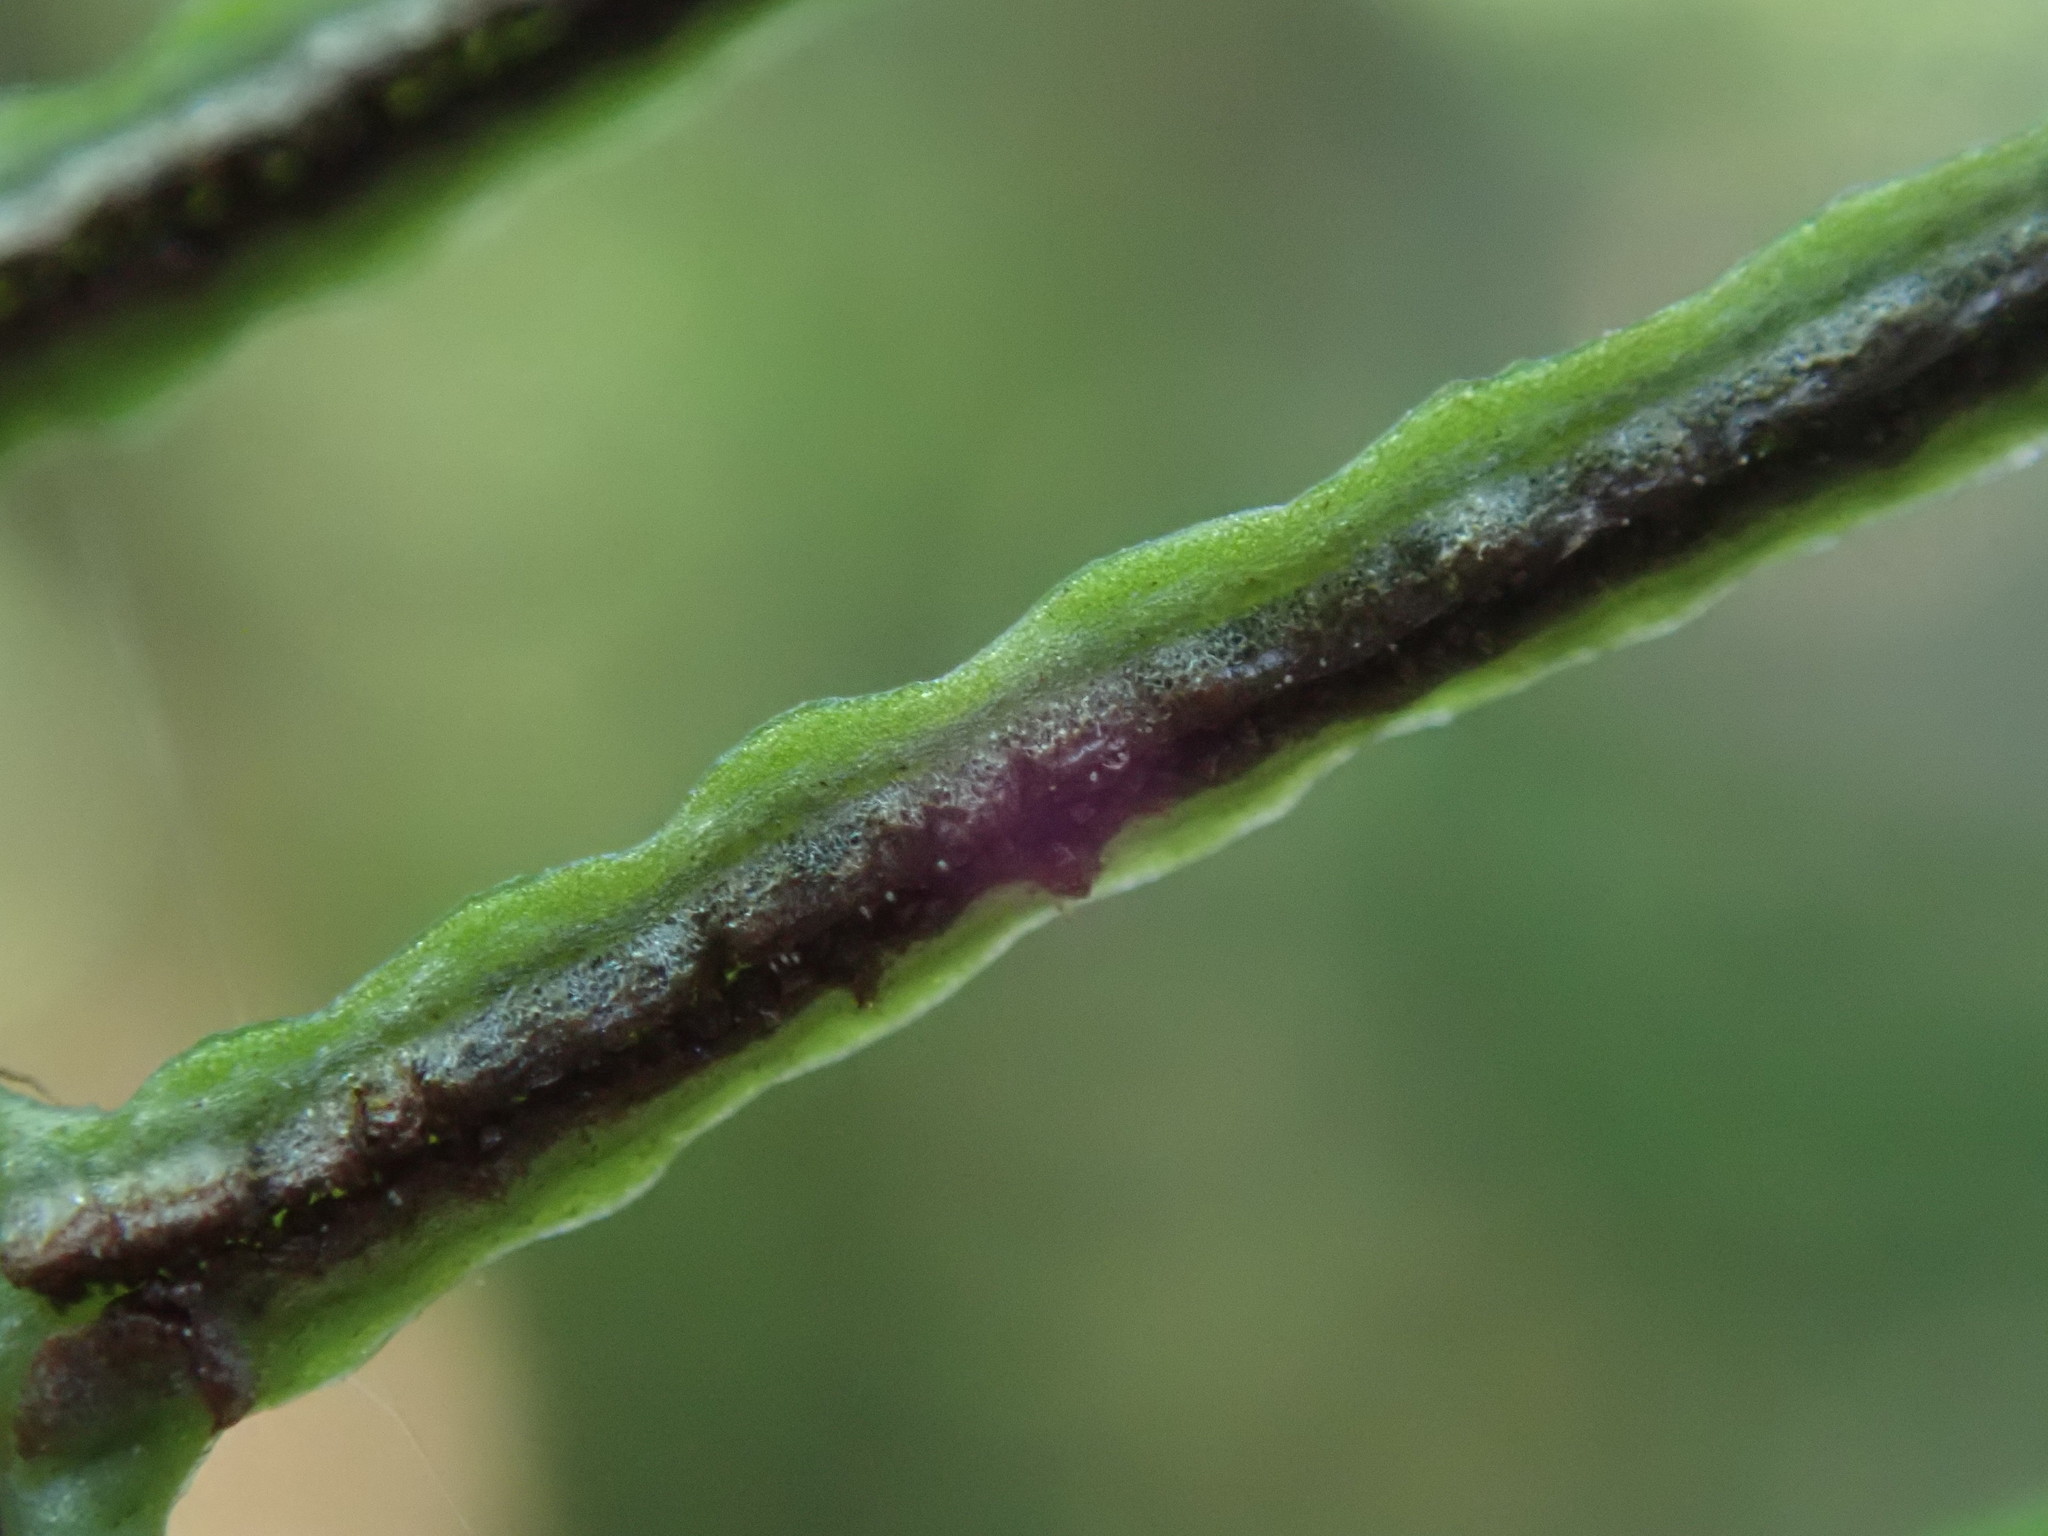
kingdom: Plantae
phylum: Tracheophyta
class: Polypodiopsida
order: Polypodiales
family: Blechnaceae
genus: Struthiopteris
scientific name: Struthiopteris spicant
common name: Deer fern
